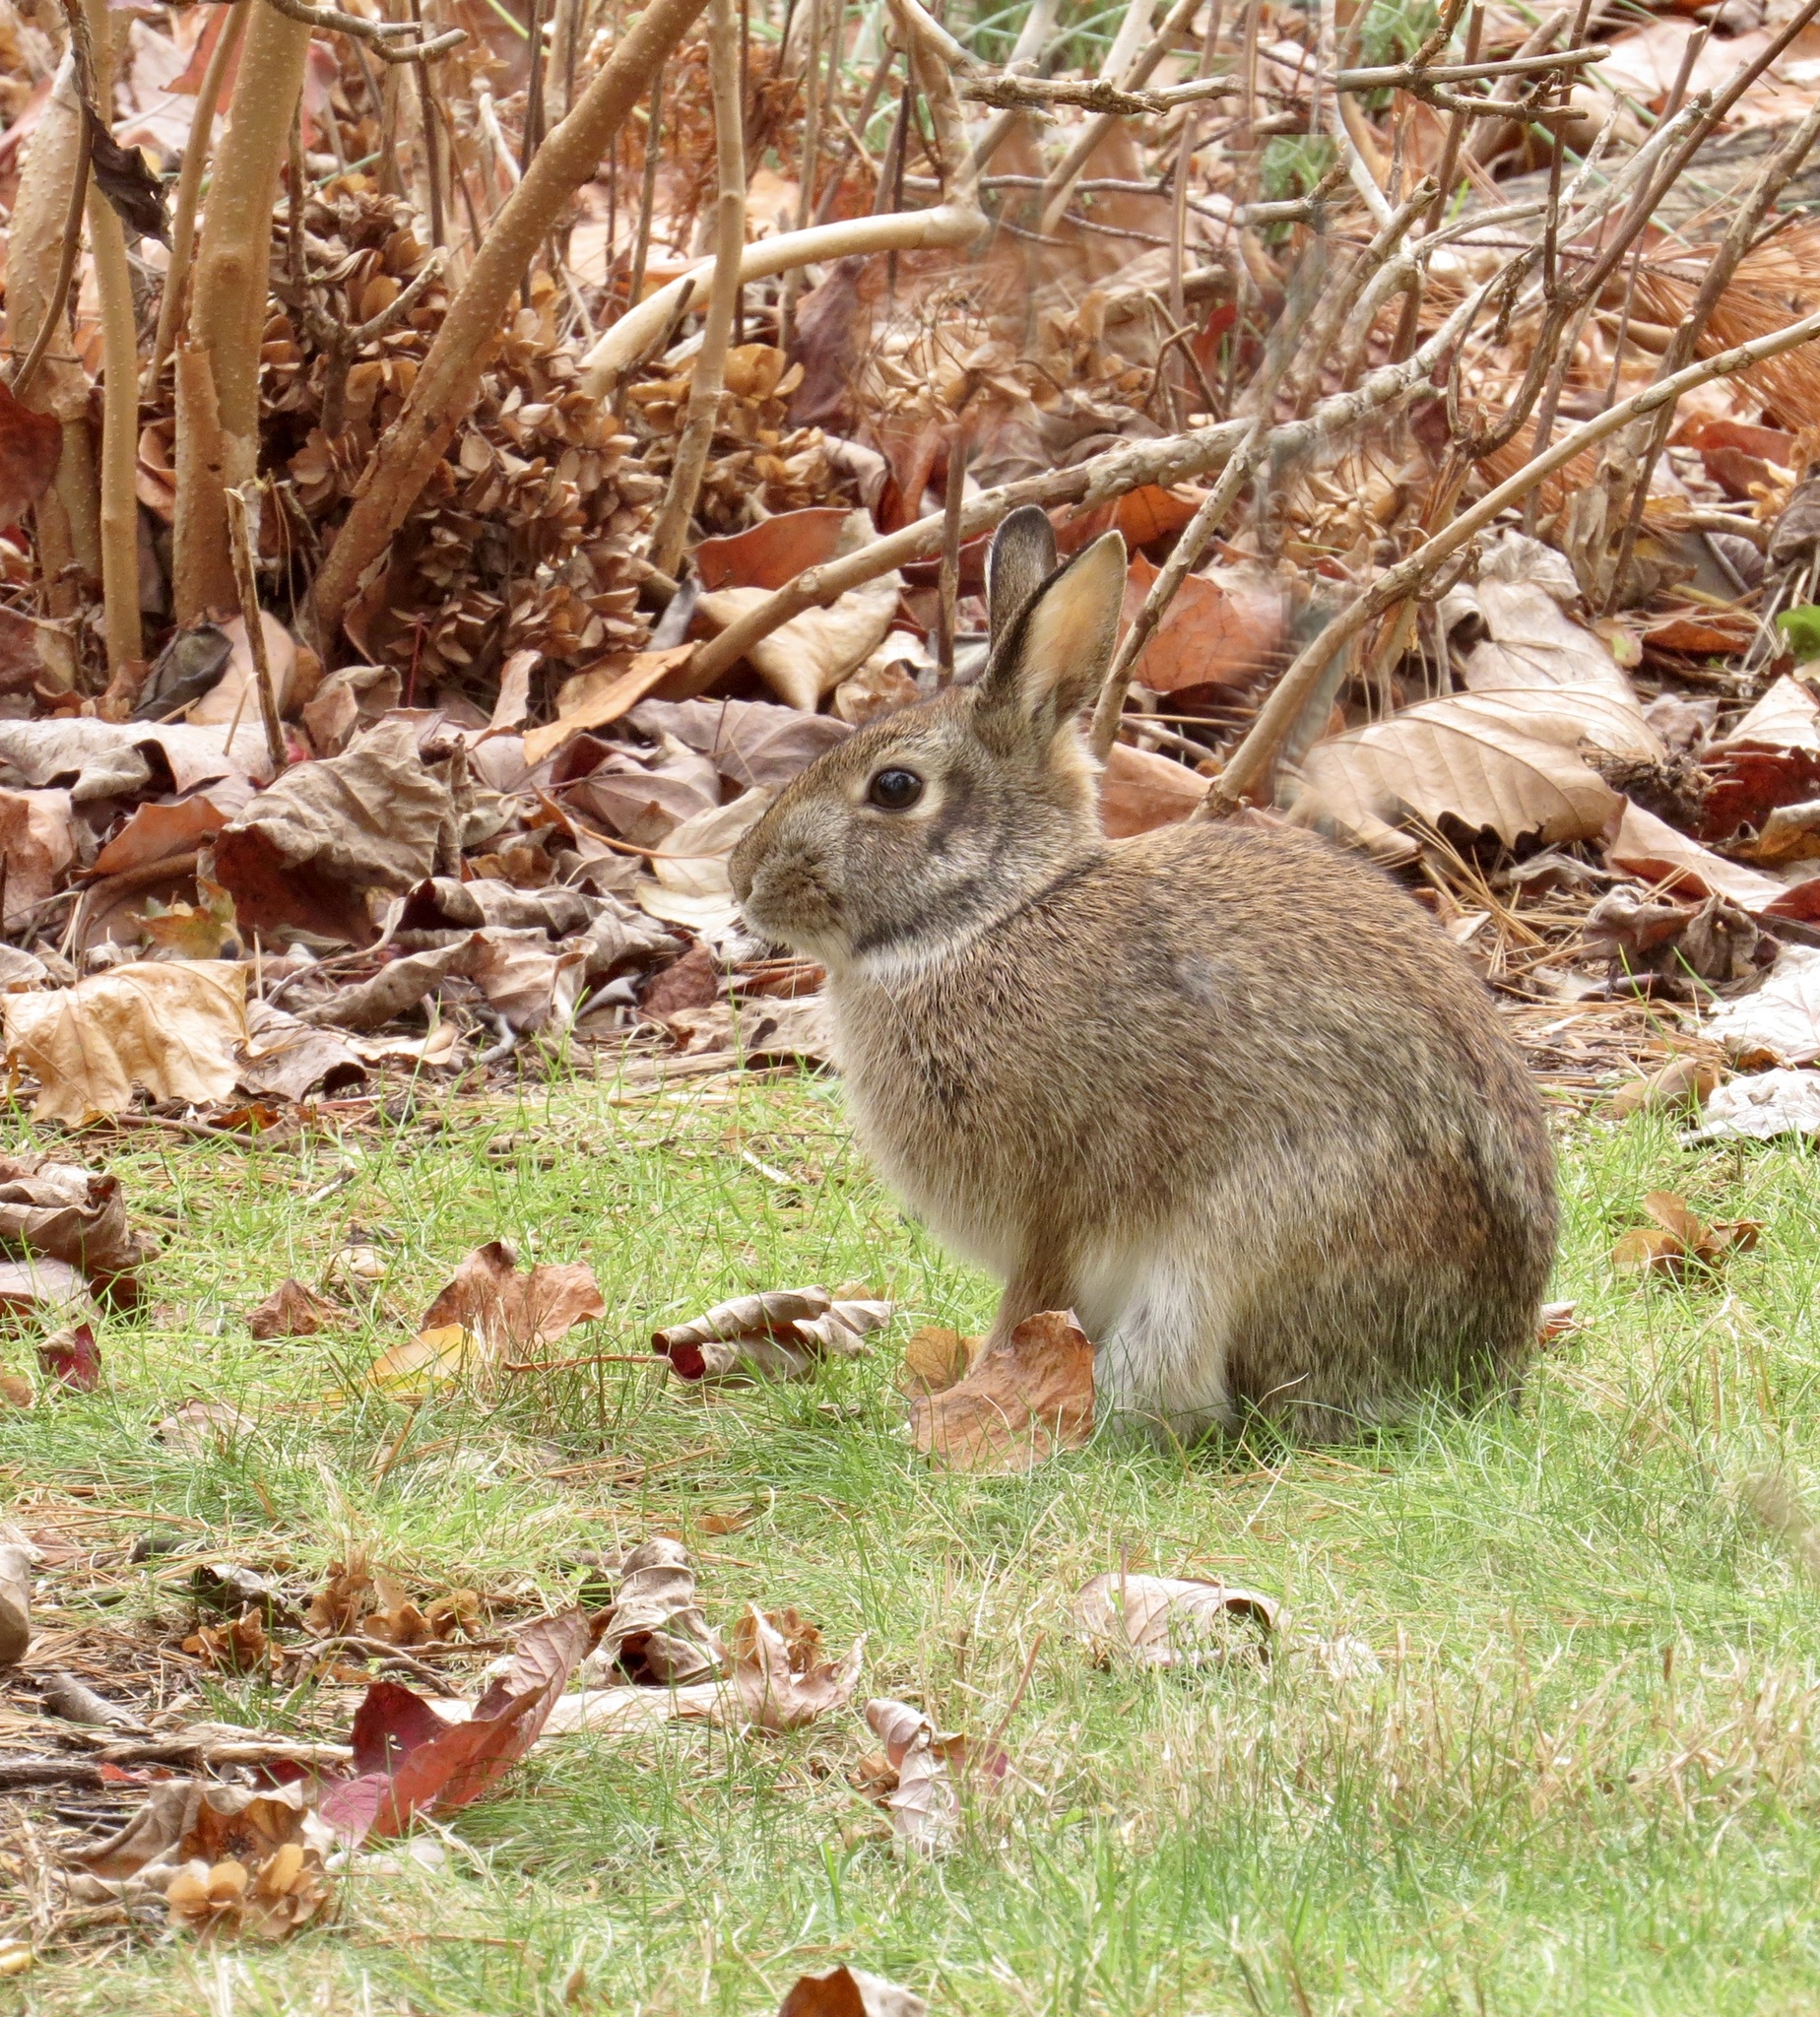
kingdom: Animalia
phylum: Chordata
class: Mammalia
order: Lagomorpha
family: Leporidae
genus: Sylvilagus
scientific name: Sylvilagus floridanus
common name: Eastern cottontail
